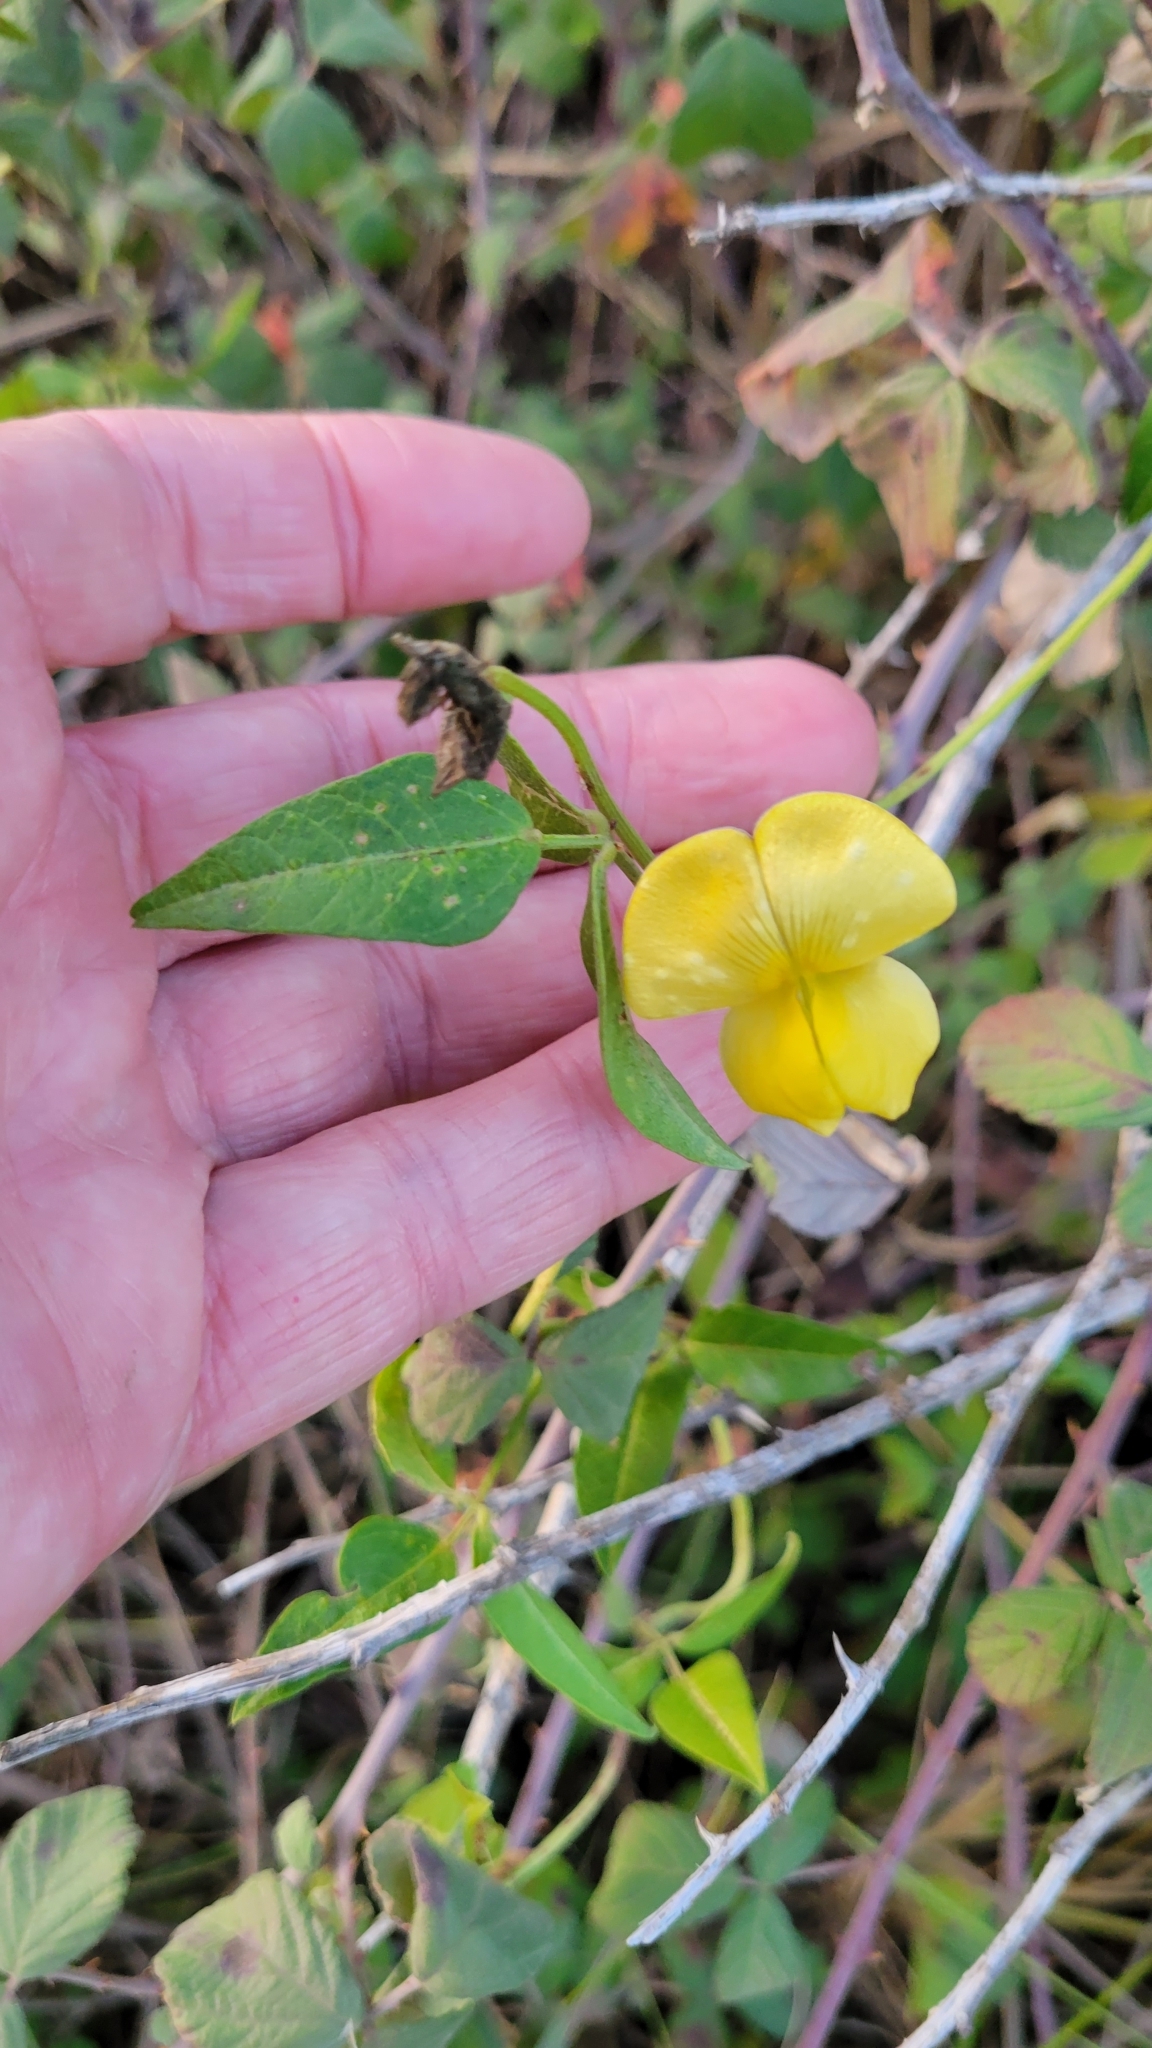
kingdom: Plantae
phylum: Tracheophyta
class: Magnoliopsida
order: Fabales
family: Fabaceae
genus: Vigna
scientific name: Vigna luteola
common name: Hairypod cowpea
